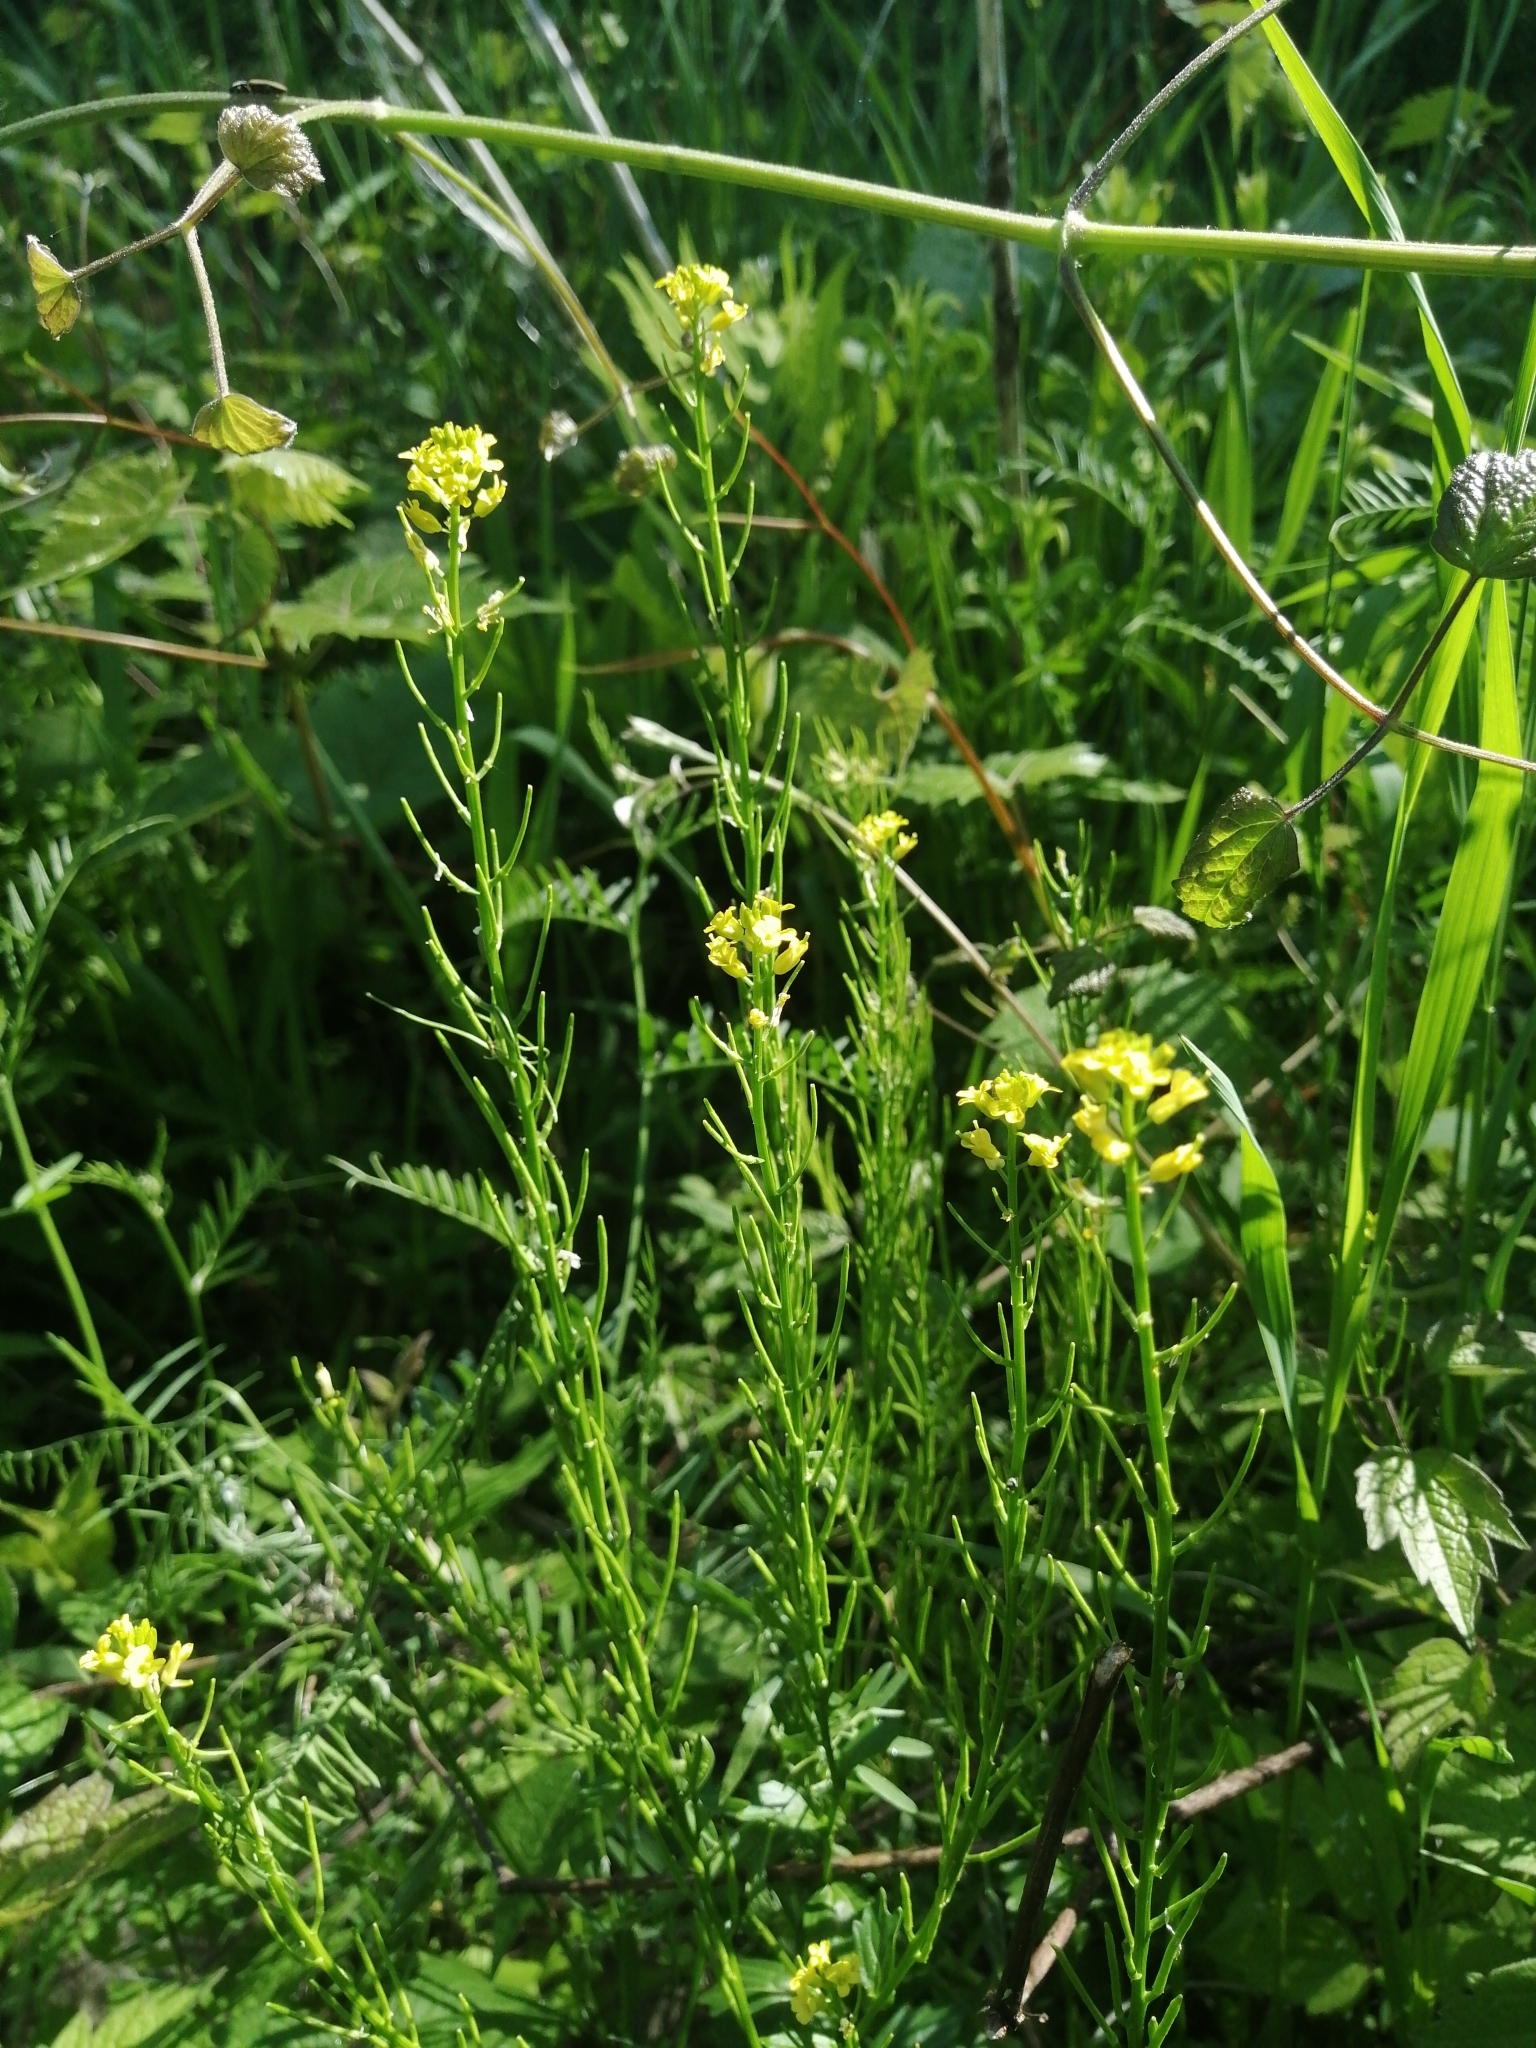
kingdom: Plantae
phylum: Tracheophyta
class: Magnoliopsida
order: Brassicales
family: Brassicaceae
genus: Erysimum
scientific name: Erysimum cheiranthoides
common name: Treacle mustard
